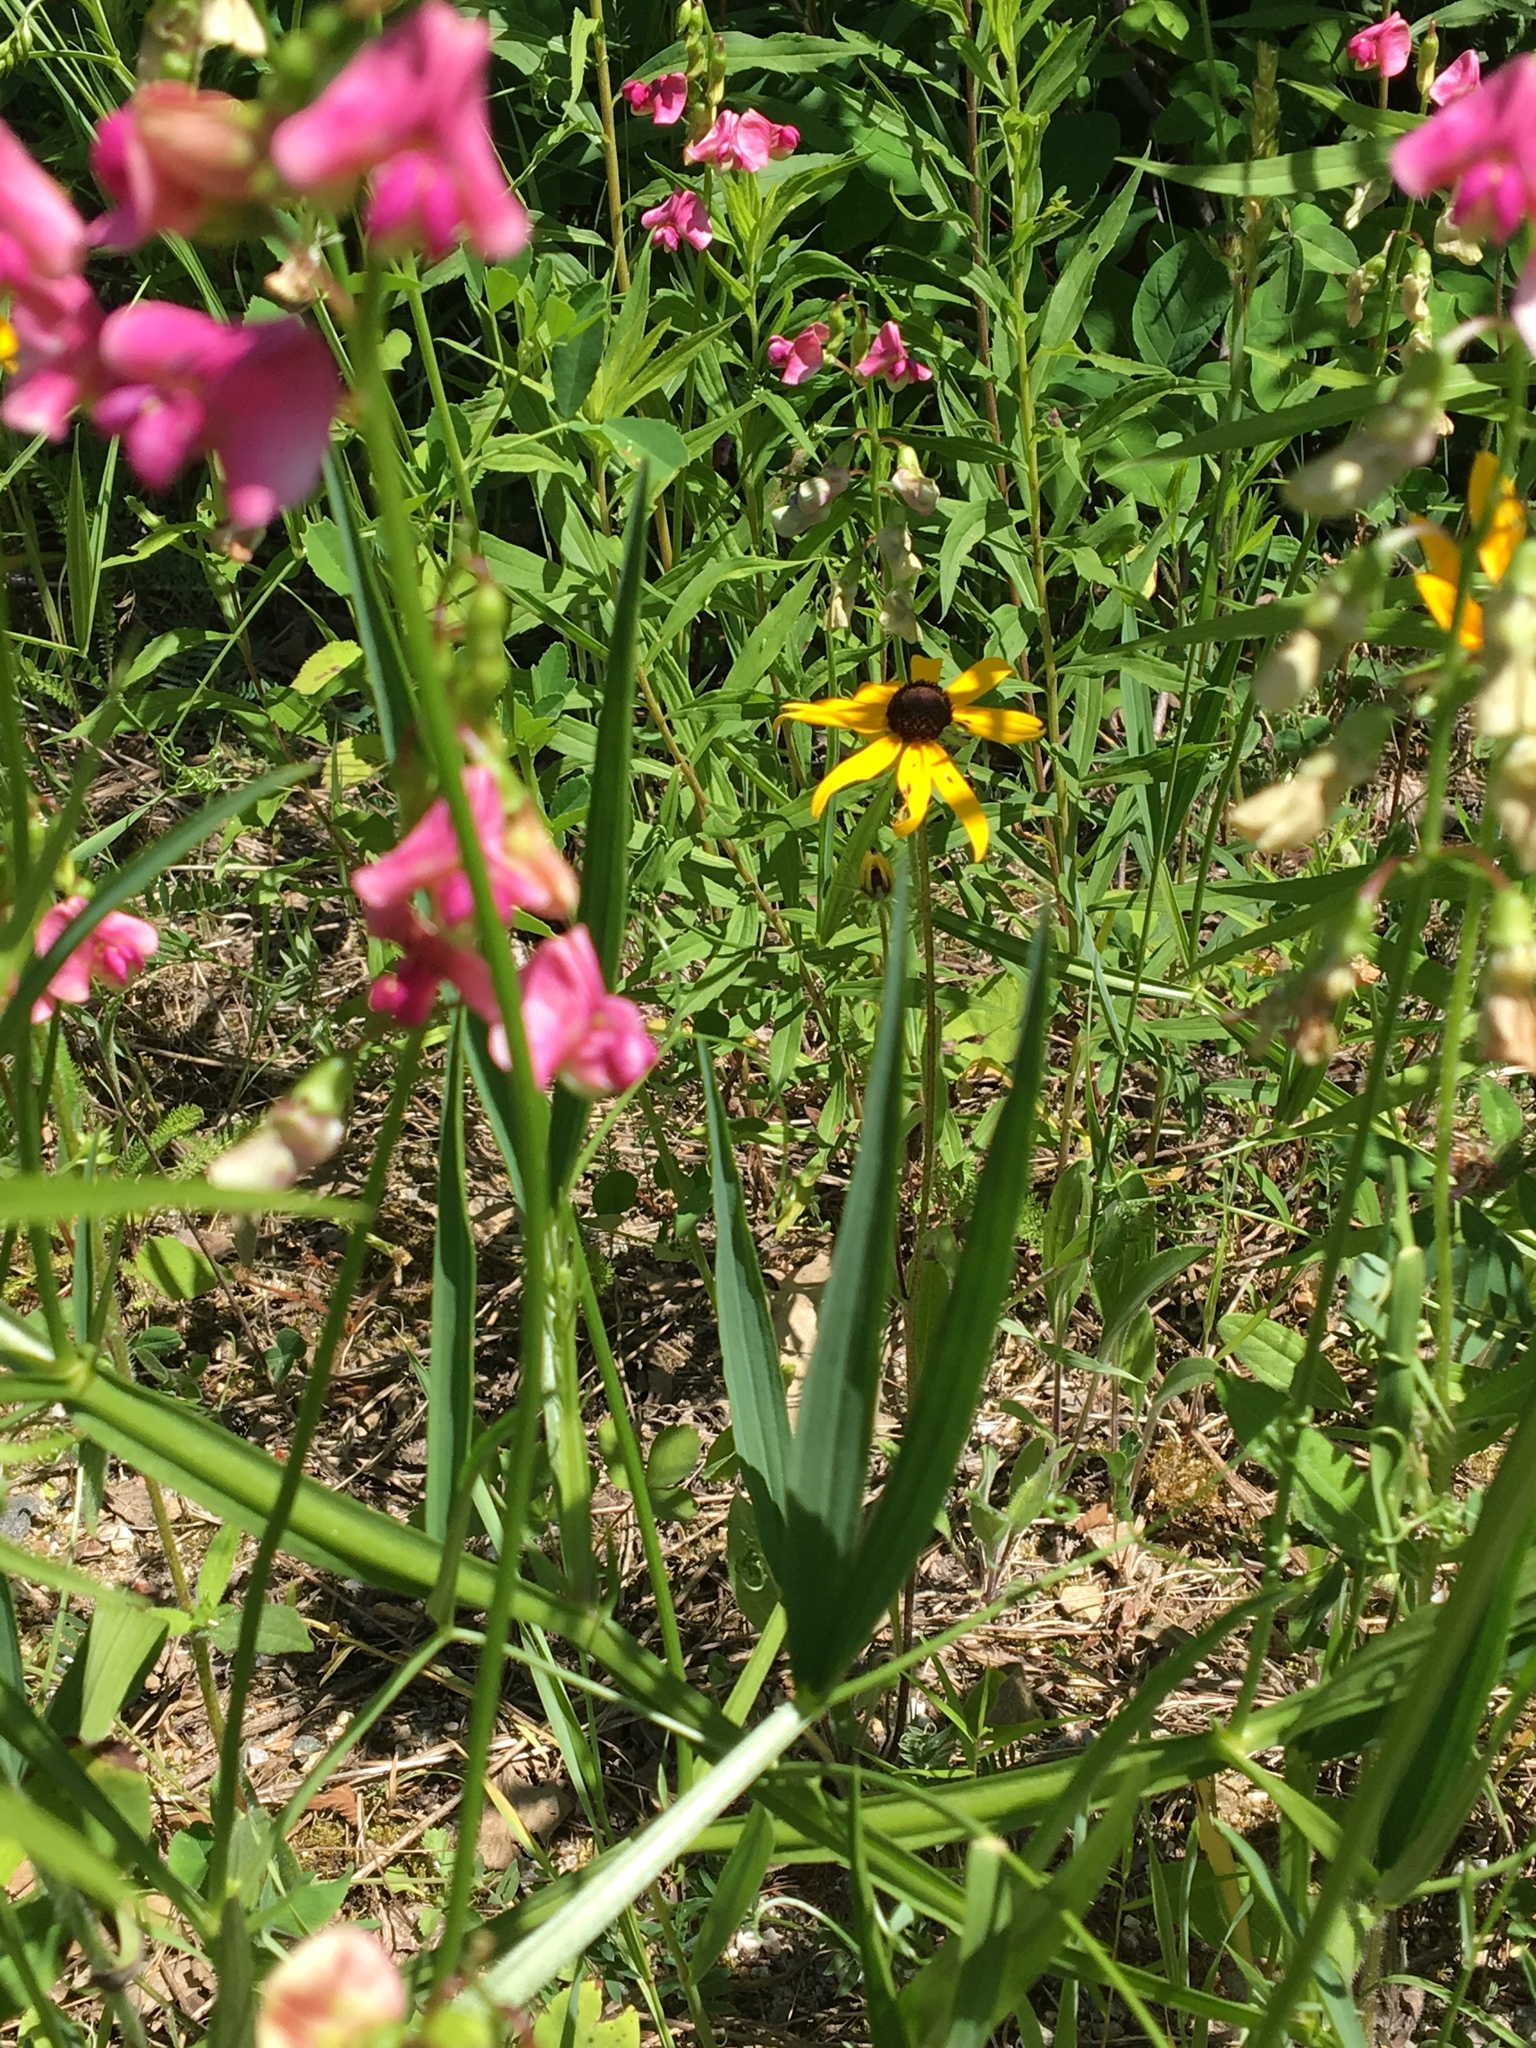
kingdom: Plantae
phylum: Tracheophyta
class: Magnoliopsida
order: Fabales
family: Fabaceae
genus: Lathyrus
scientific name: Lathyrus sylvestris
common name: Flat pea
